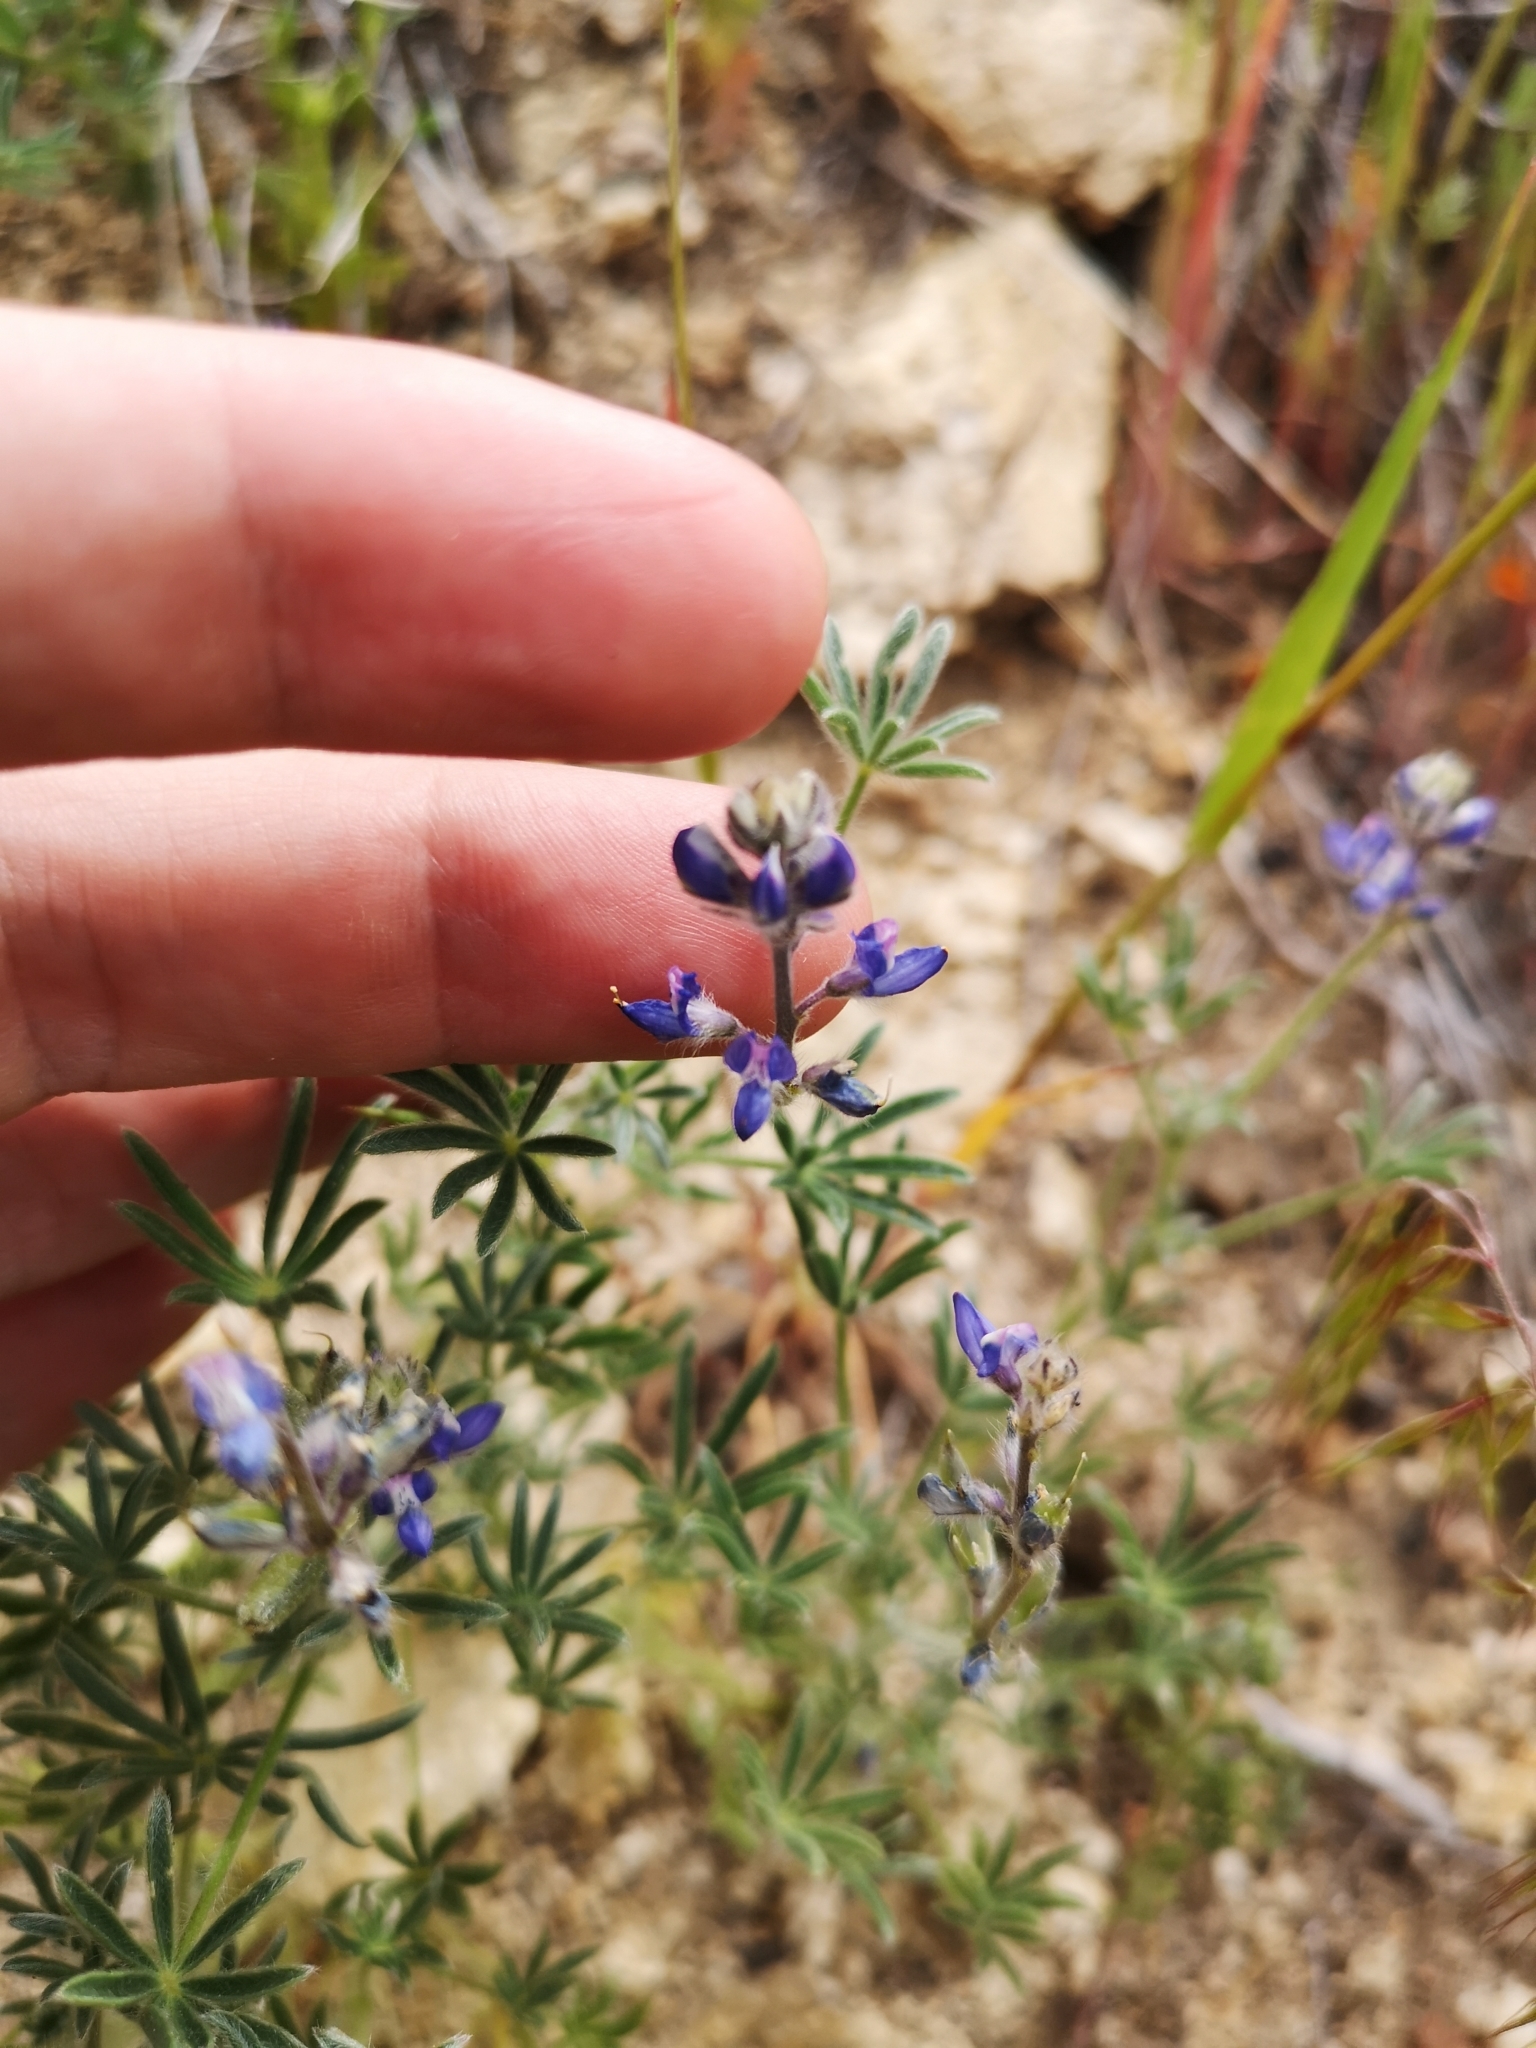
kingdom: Plantae
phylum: Tracheophyta
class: Magnoliopsida
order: Fabales
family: Fabaceae
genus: Lupinus
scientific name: Lupinus bicolor
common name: Miniature lupine
